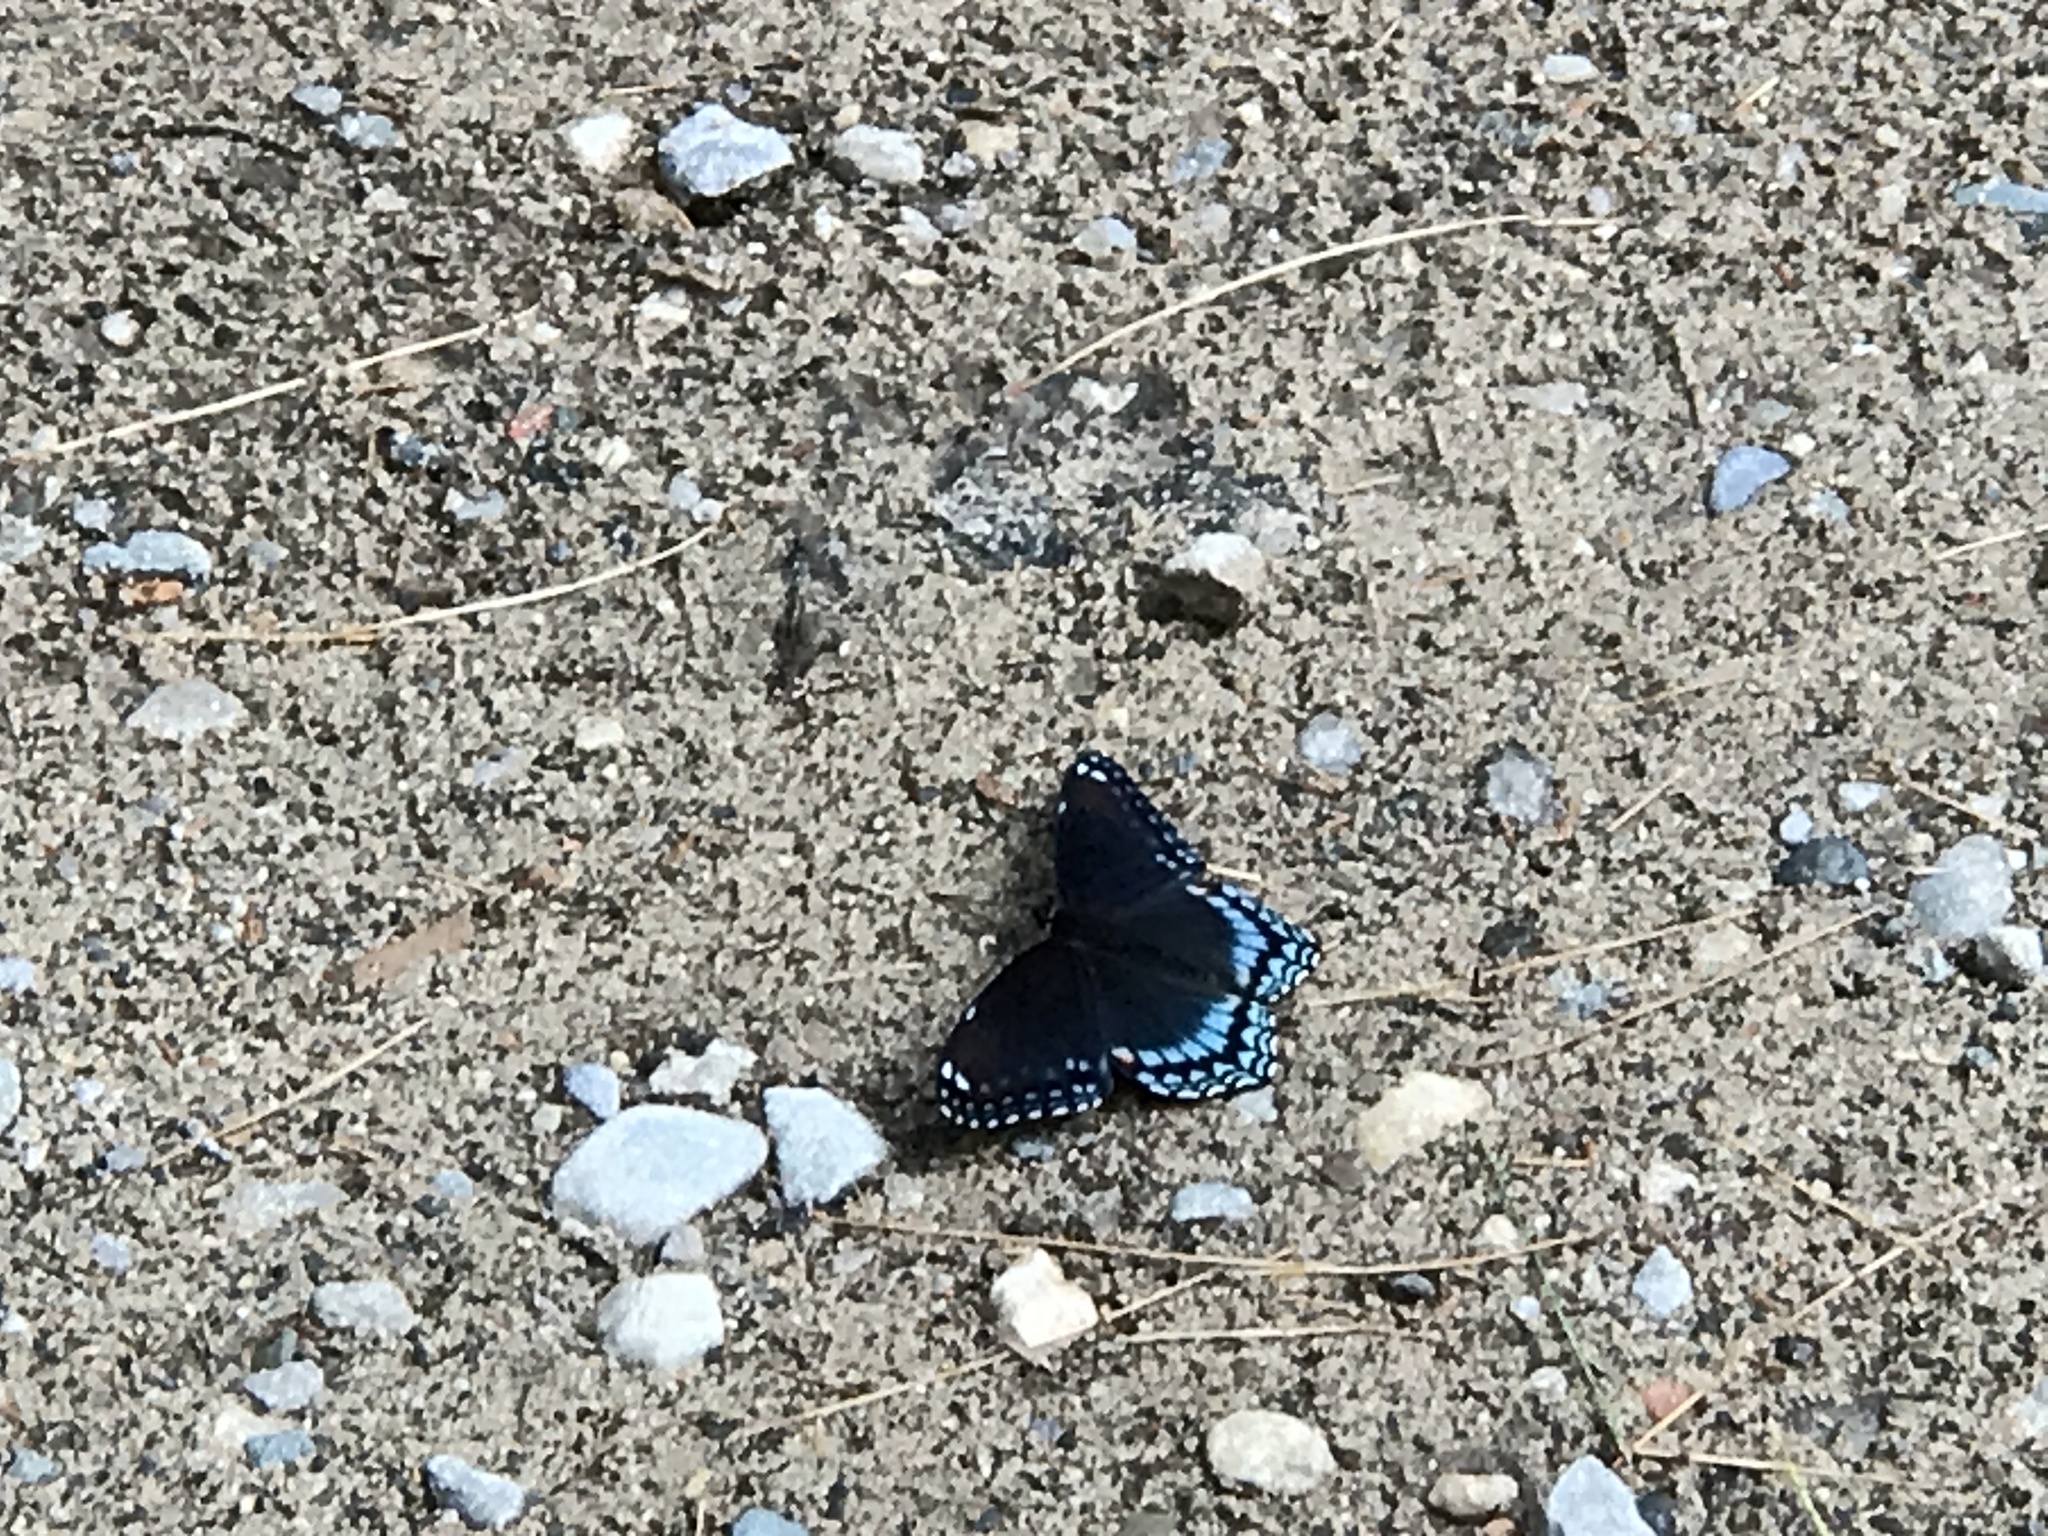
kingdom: Animalia
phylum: Arthropoda
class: Insecta
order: Lepidoptera
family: Nymphalidae
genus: Limenitis
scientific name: Limenitis arthemis
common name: Red-spotted admiral
